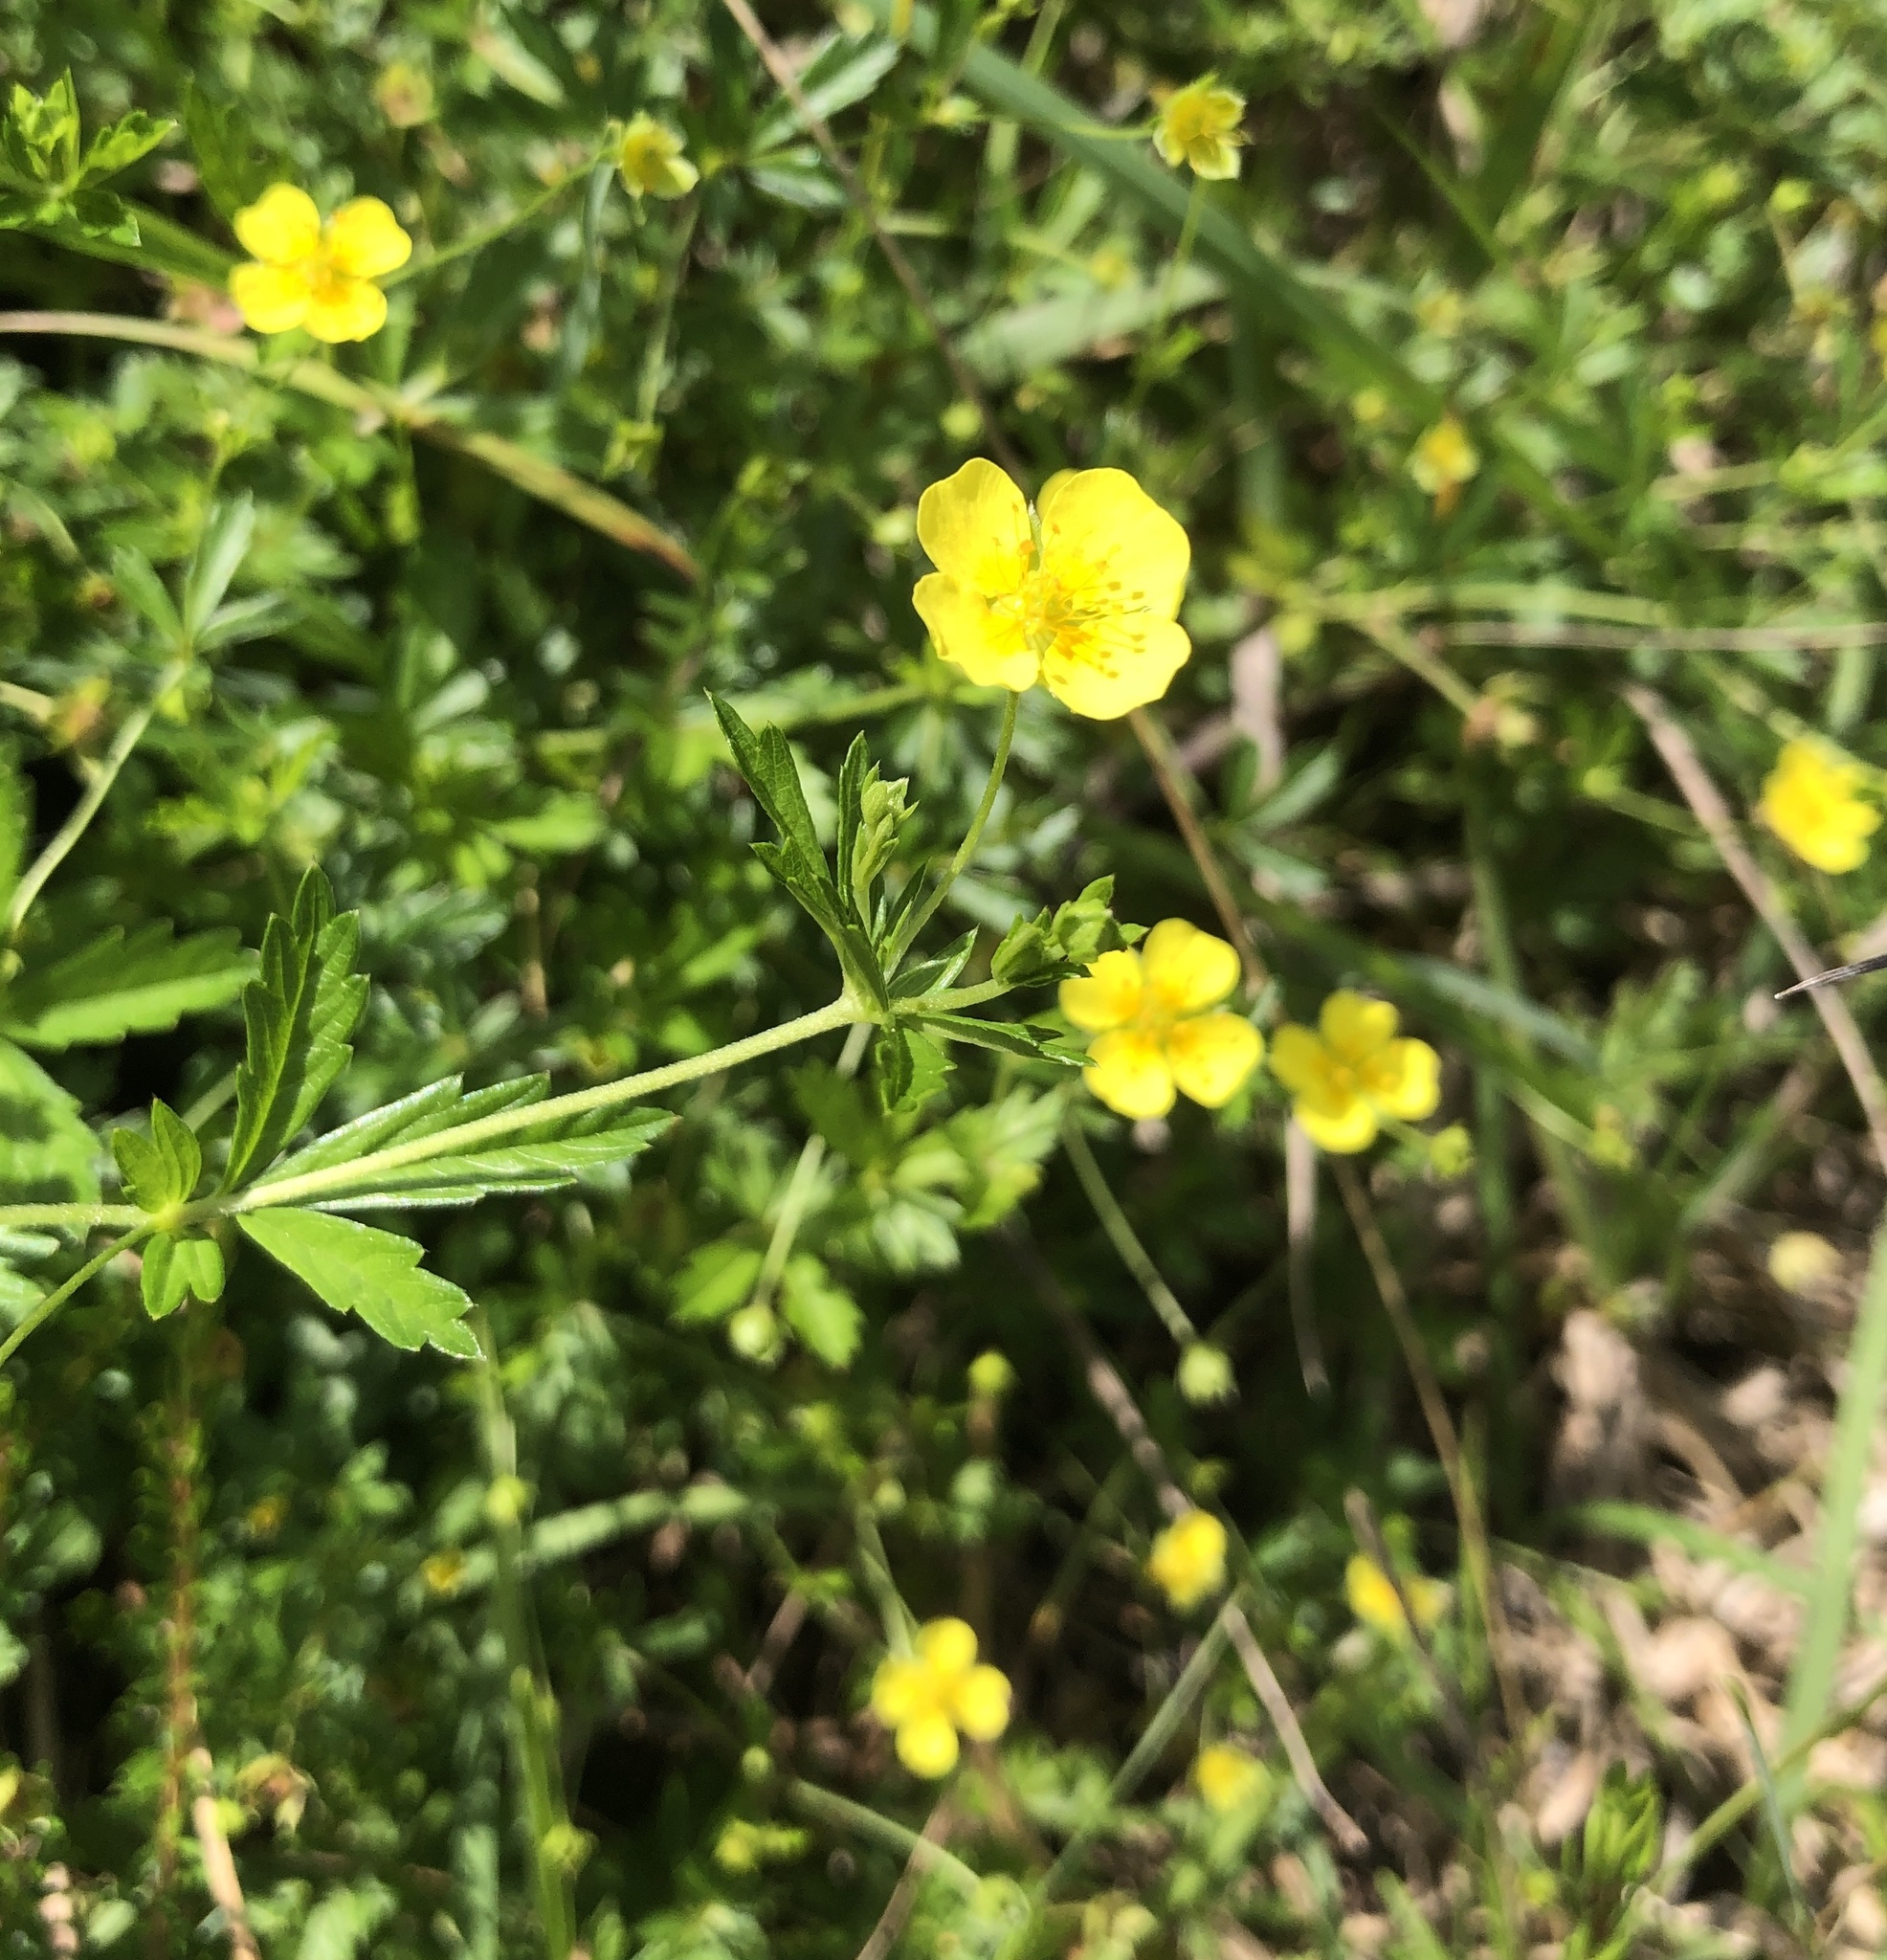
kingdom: Plantae
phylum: Tracheophyta
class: Magnoliopsida
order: Rosales
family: Rosaceae
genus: Potentilla
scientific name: Potentilla erecta
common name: Tormentil
